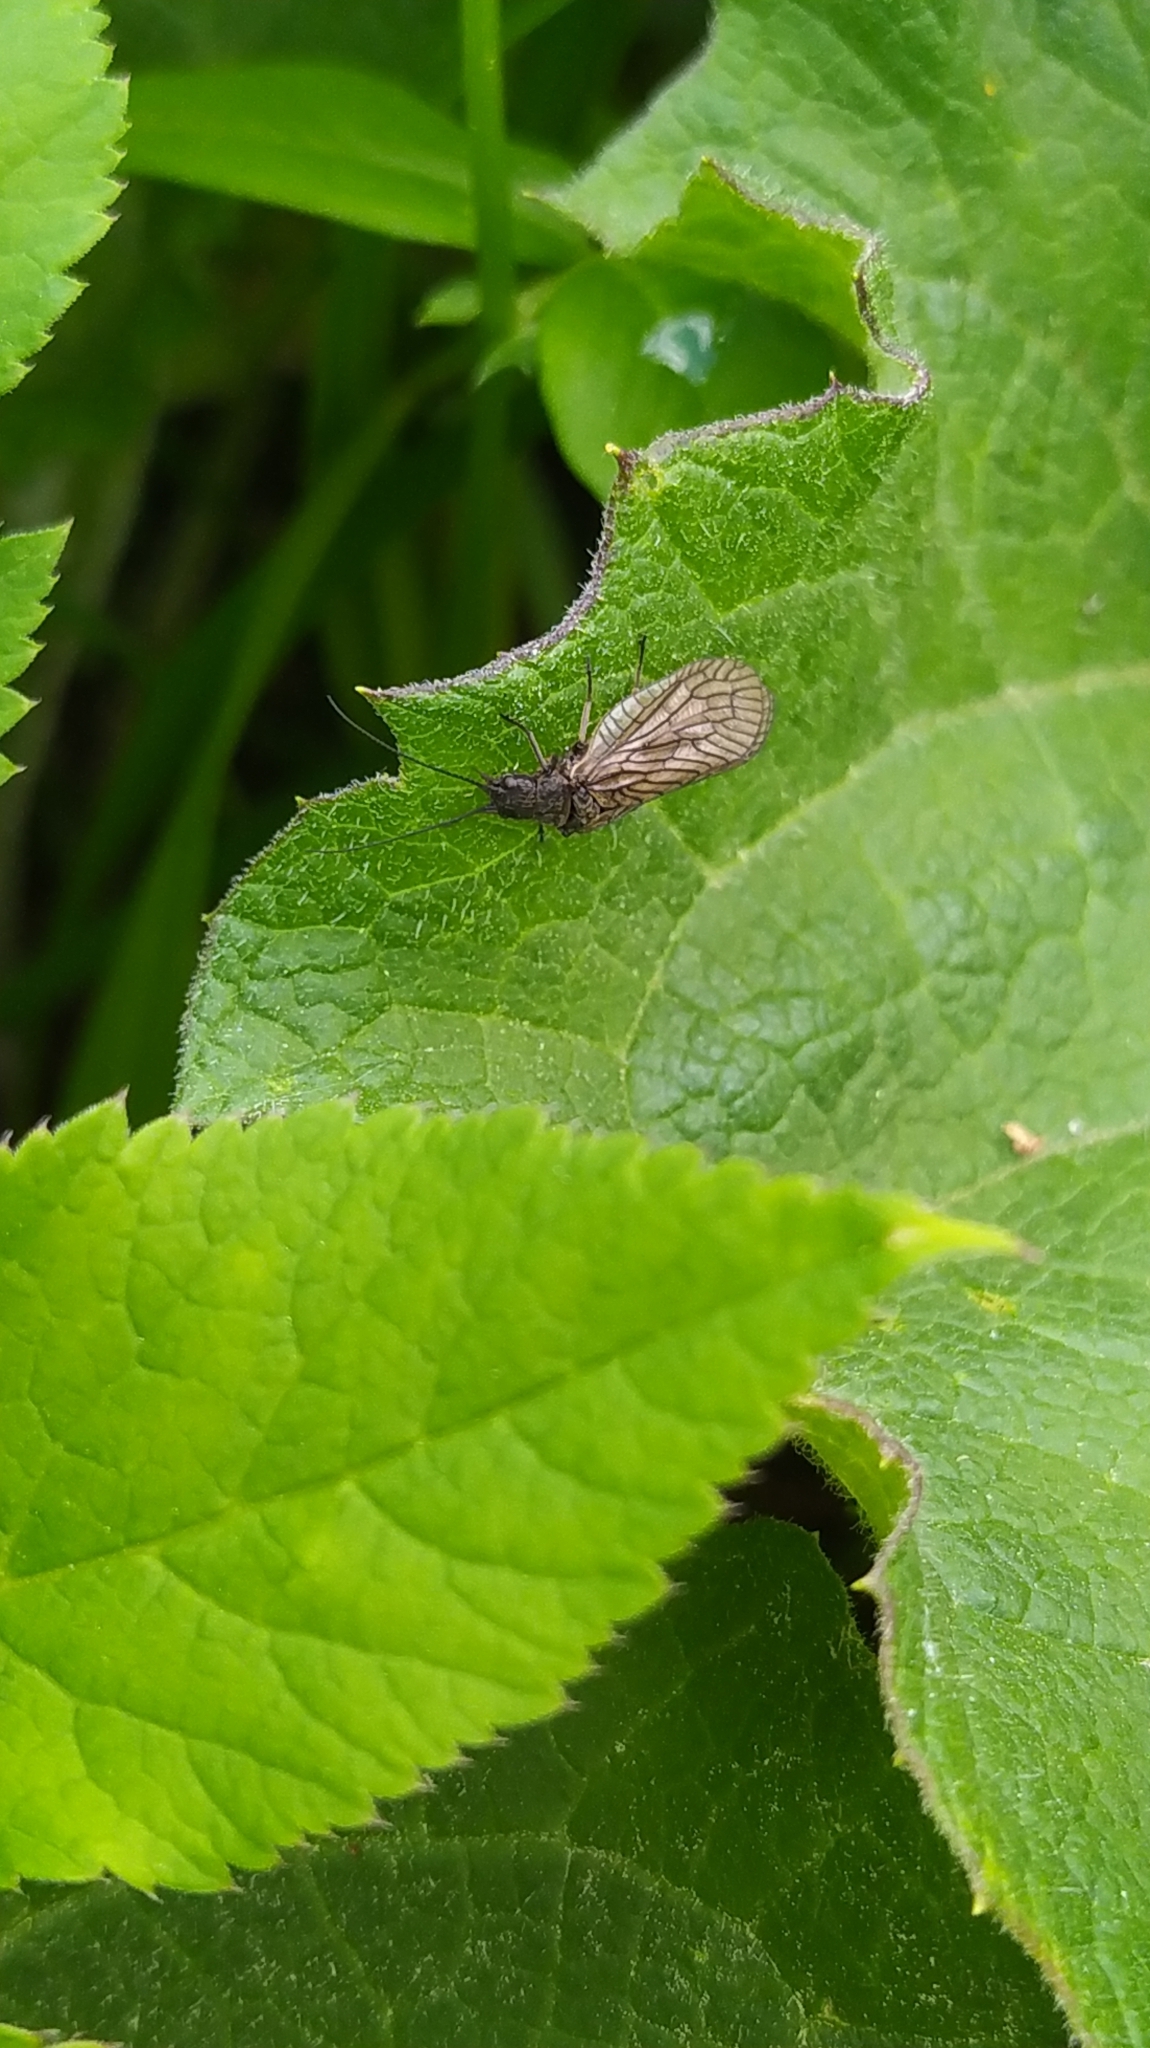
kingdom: Animalia
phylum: Arthropoda
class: Insecta
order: Megaloptera
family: Sialidae
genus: Sialis
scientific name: Sialis
